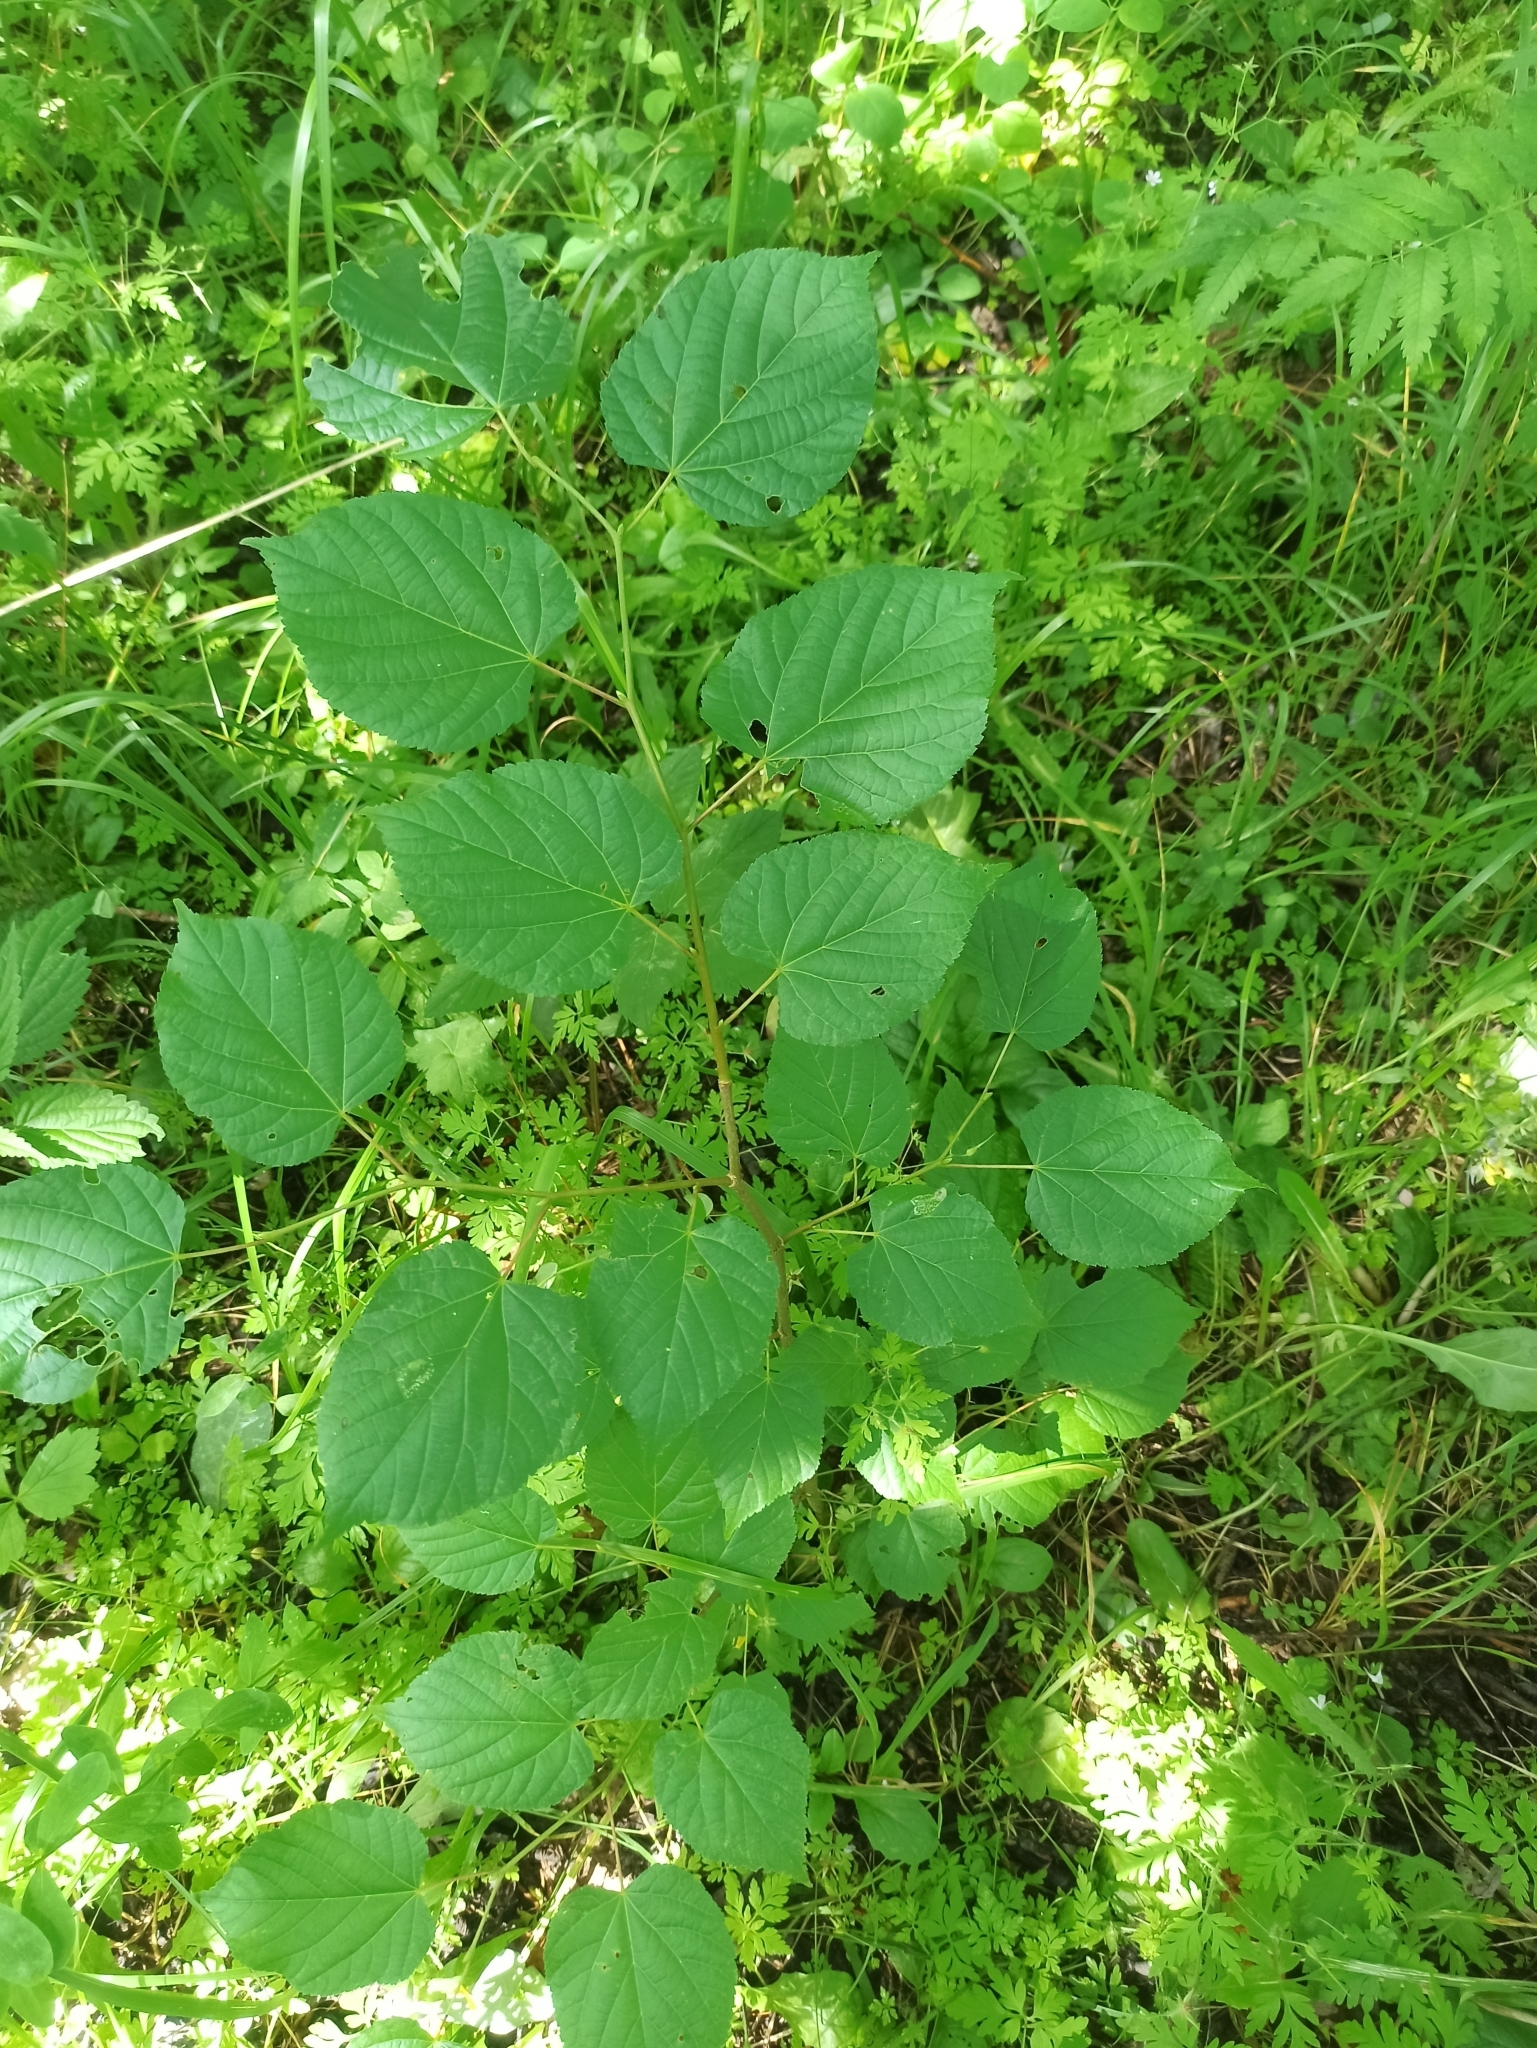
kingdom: Plantae
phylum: Tracheophyta
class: Magnoliopsida
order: Malvales
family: Malvaceae
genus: Tilia
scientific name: Tilia cordata
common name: Small-leaved lime
